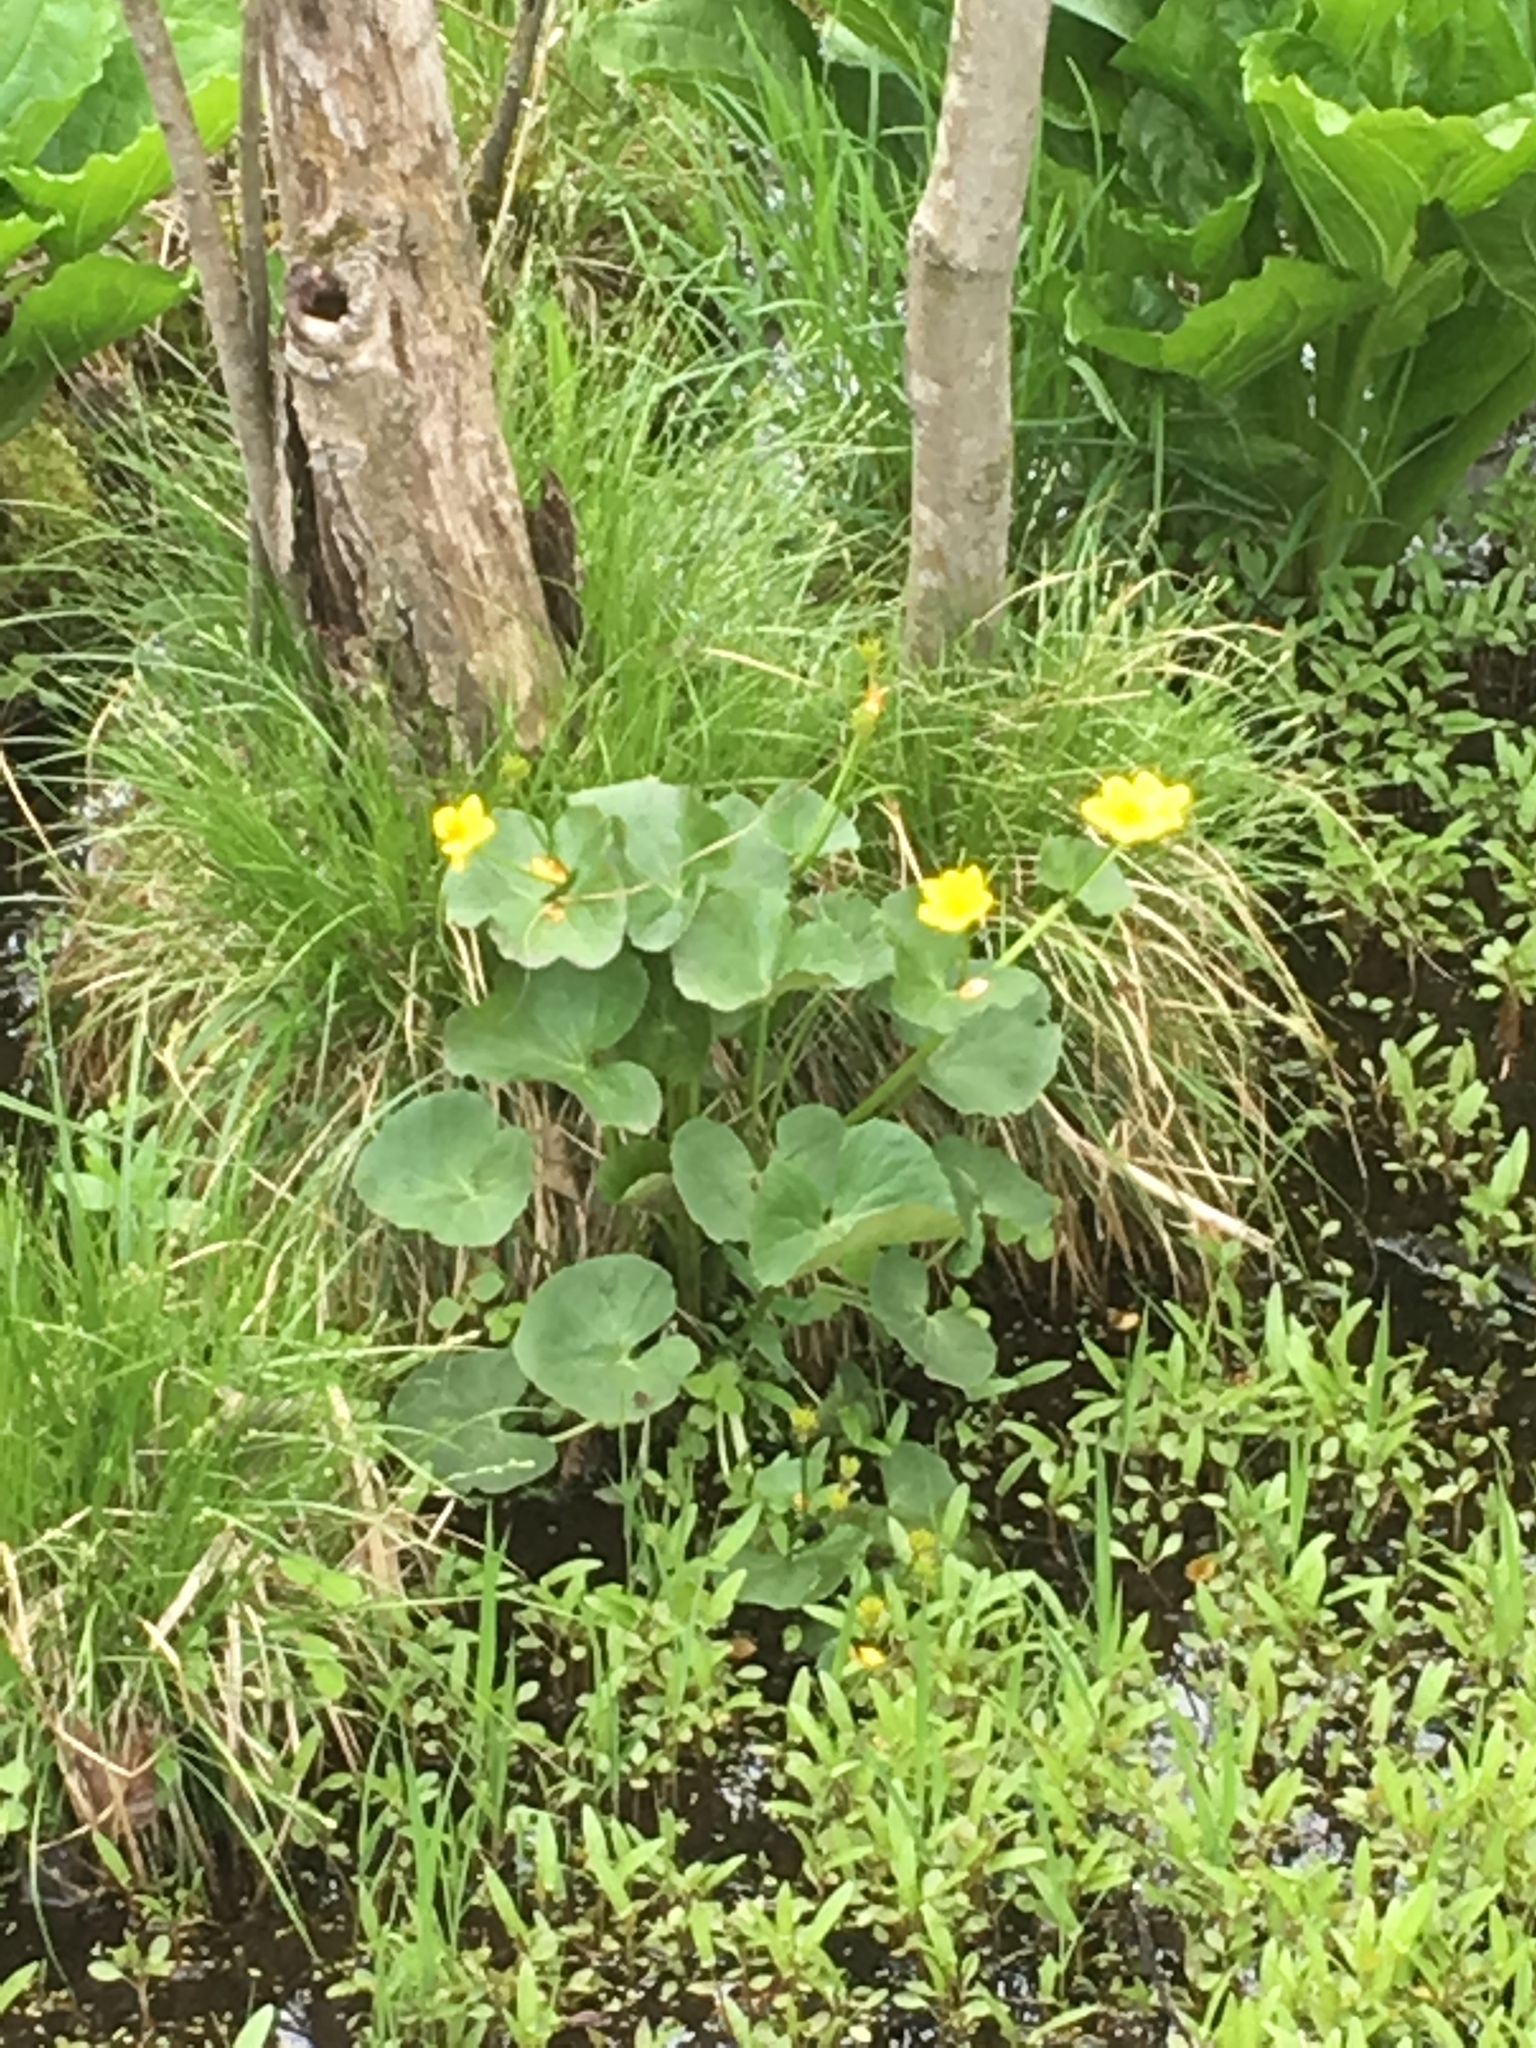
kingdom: Plantae
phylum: Tracheophyta
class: Magnoliopsida
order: Ranunculales
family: Ranunculaceae
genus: Caltha
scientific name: Caltha palustris
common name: Marsh marigold
